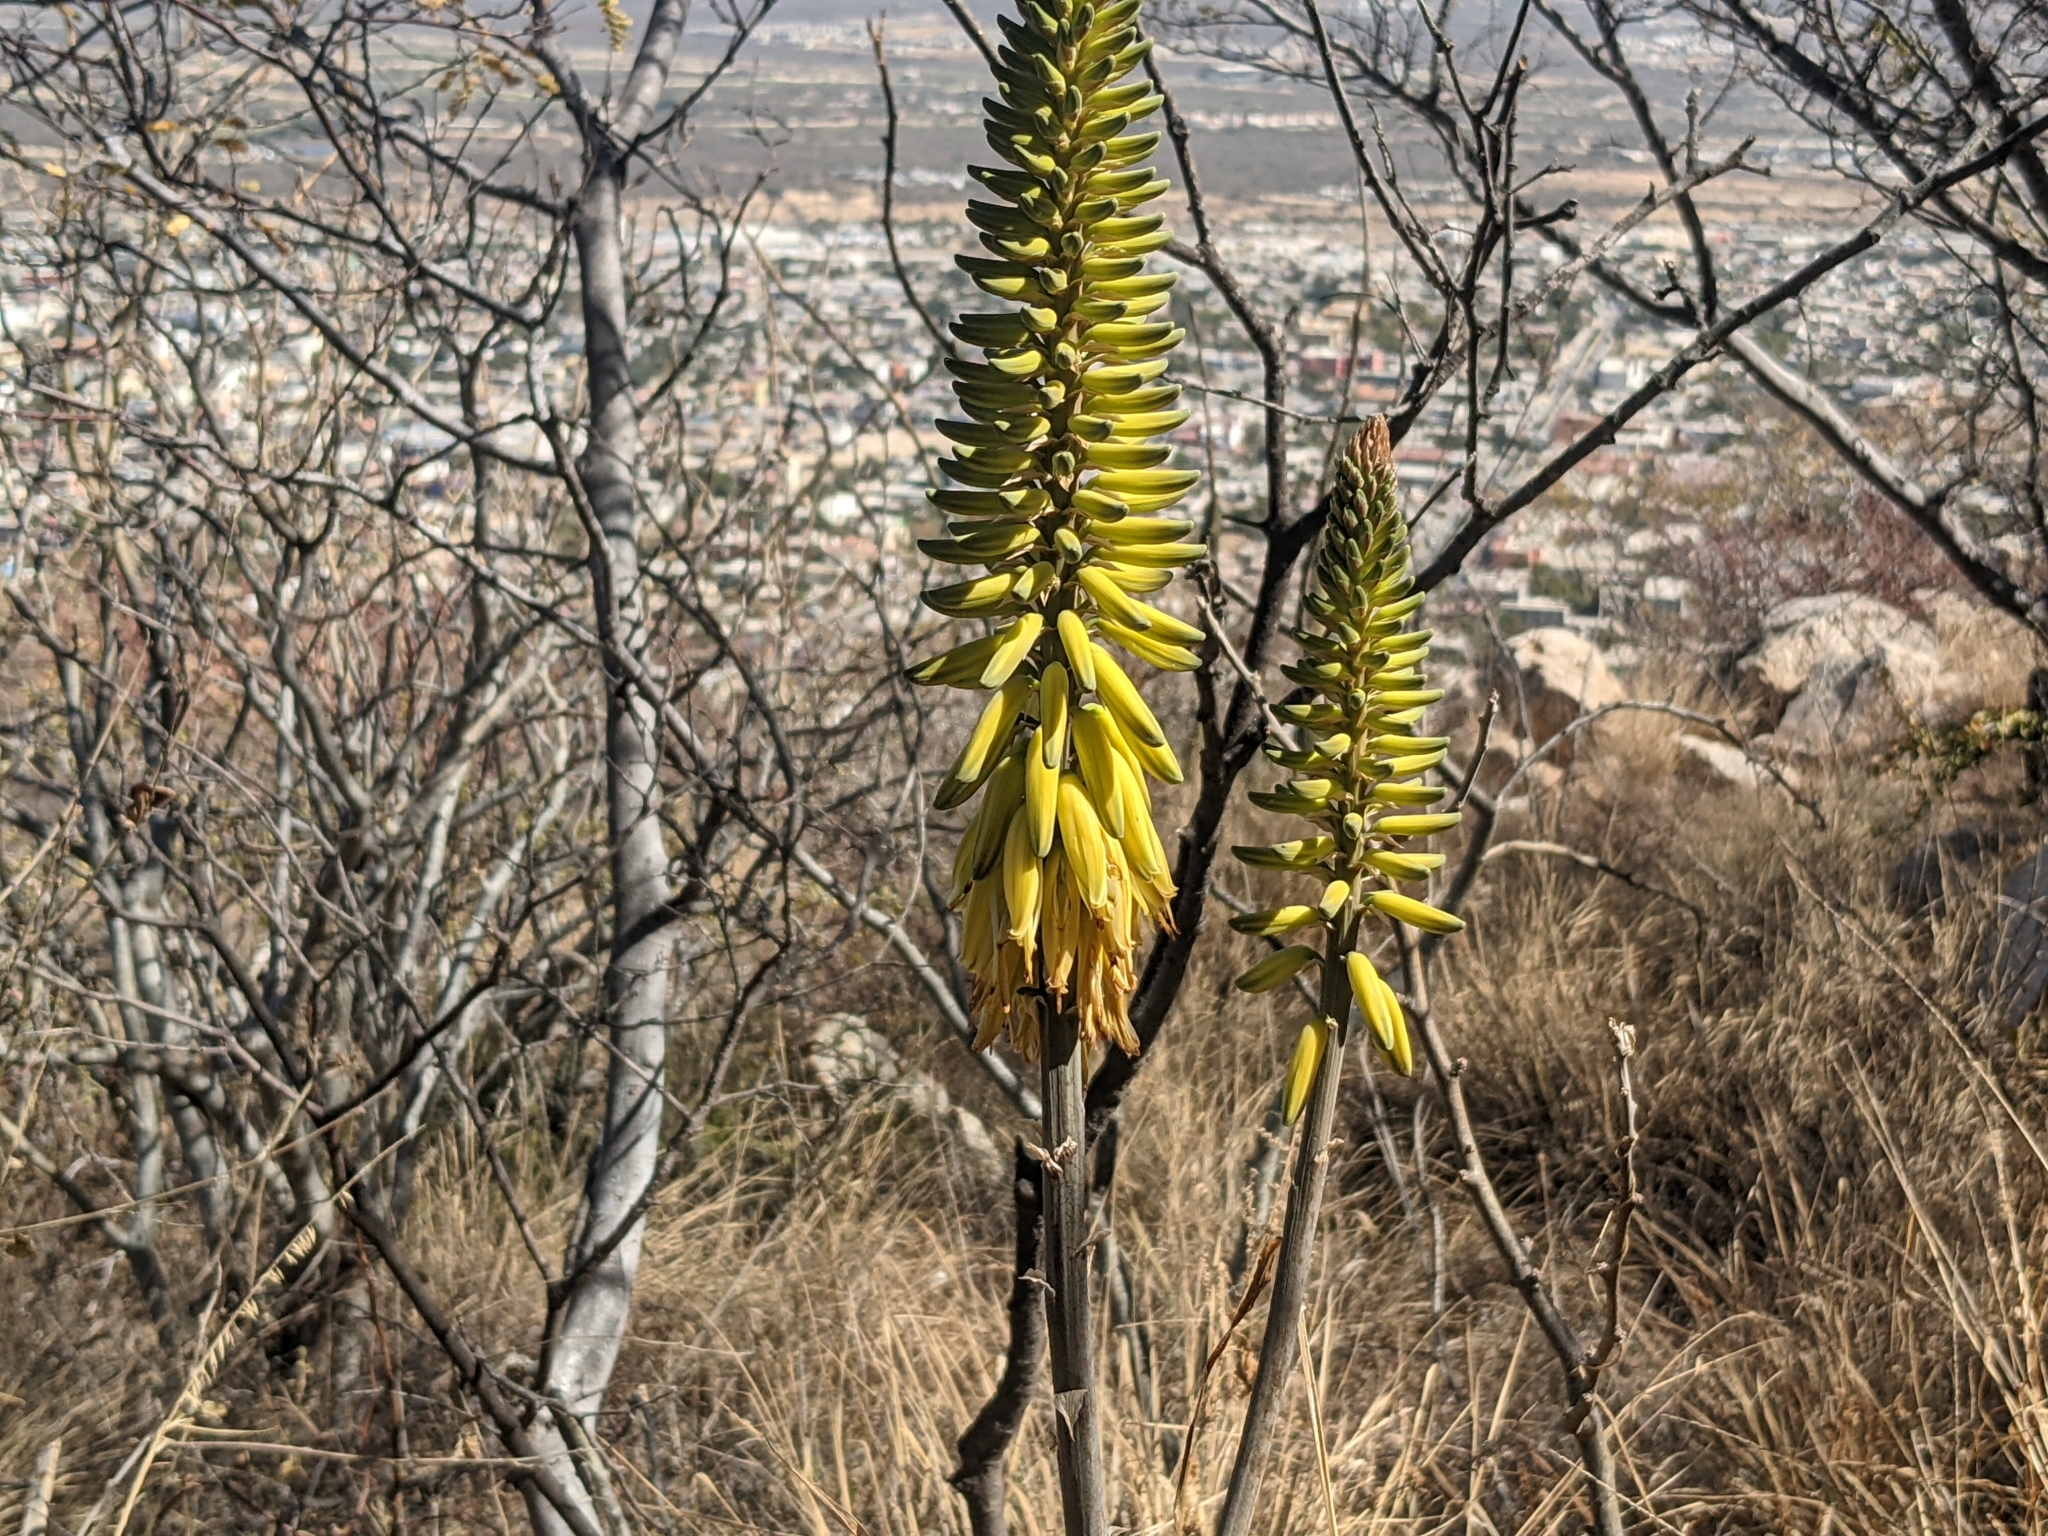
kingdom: Plantae
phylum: Tracheophyta
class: Liliopsida
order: Asparagales
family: Asphodelaceae
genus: Aloe
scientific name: Aloe vera
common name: Barbados aloe
